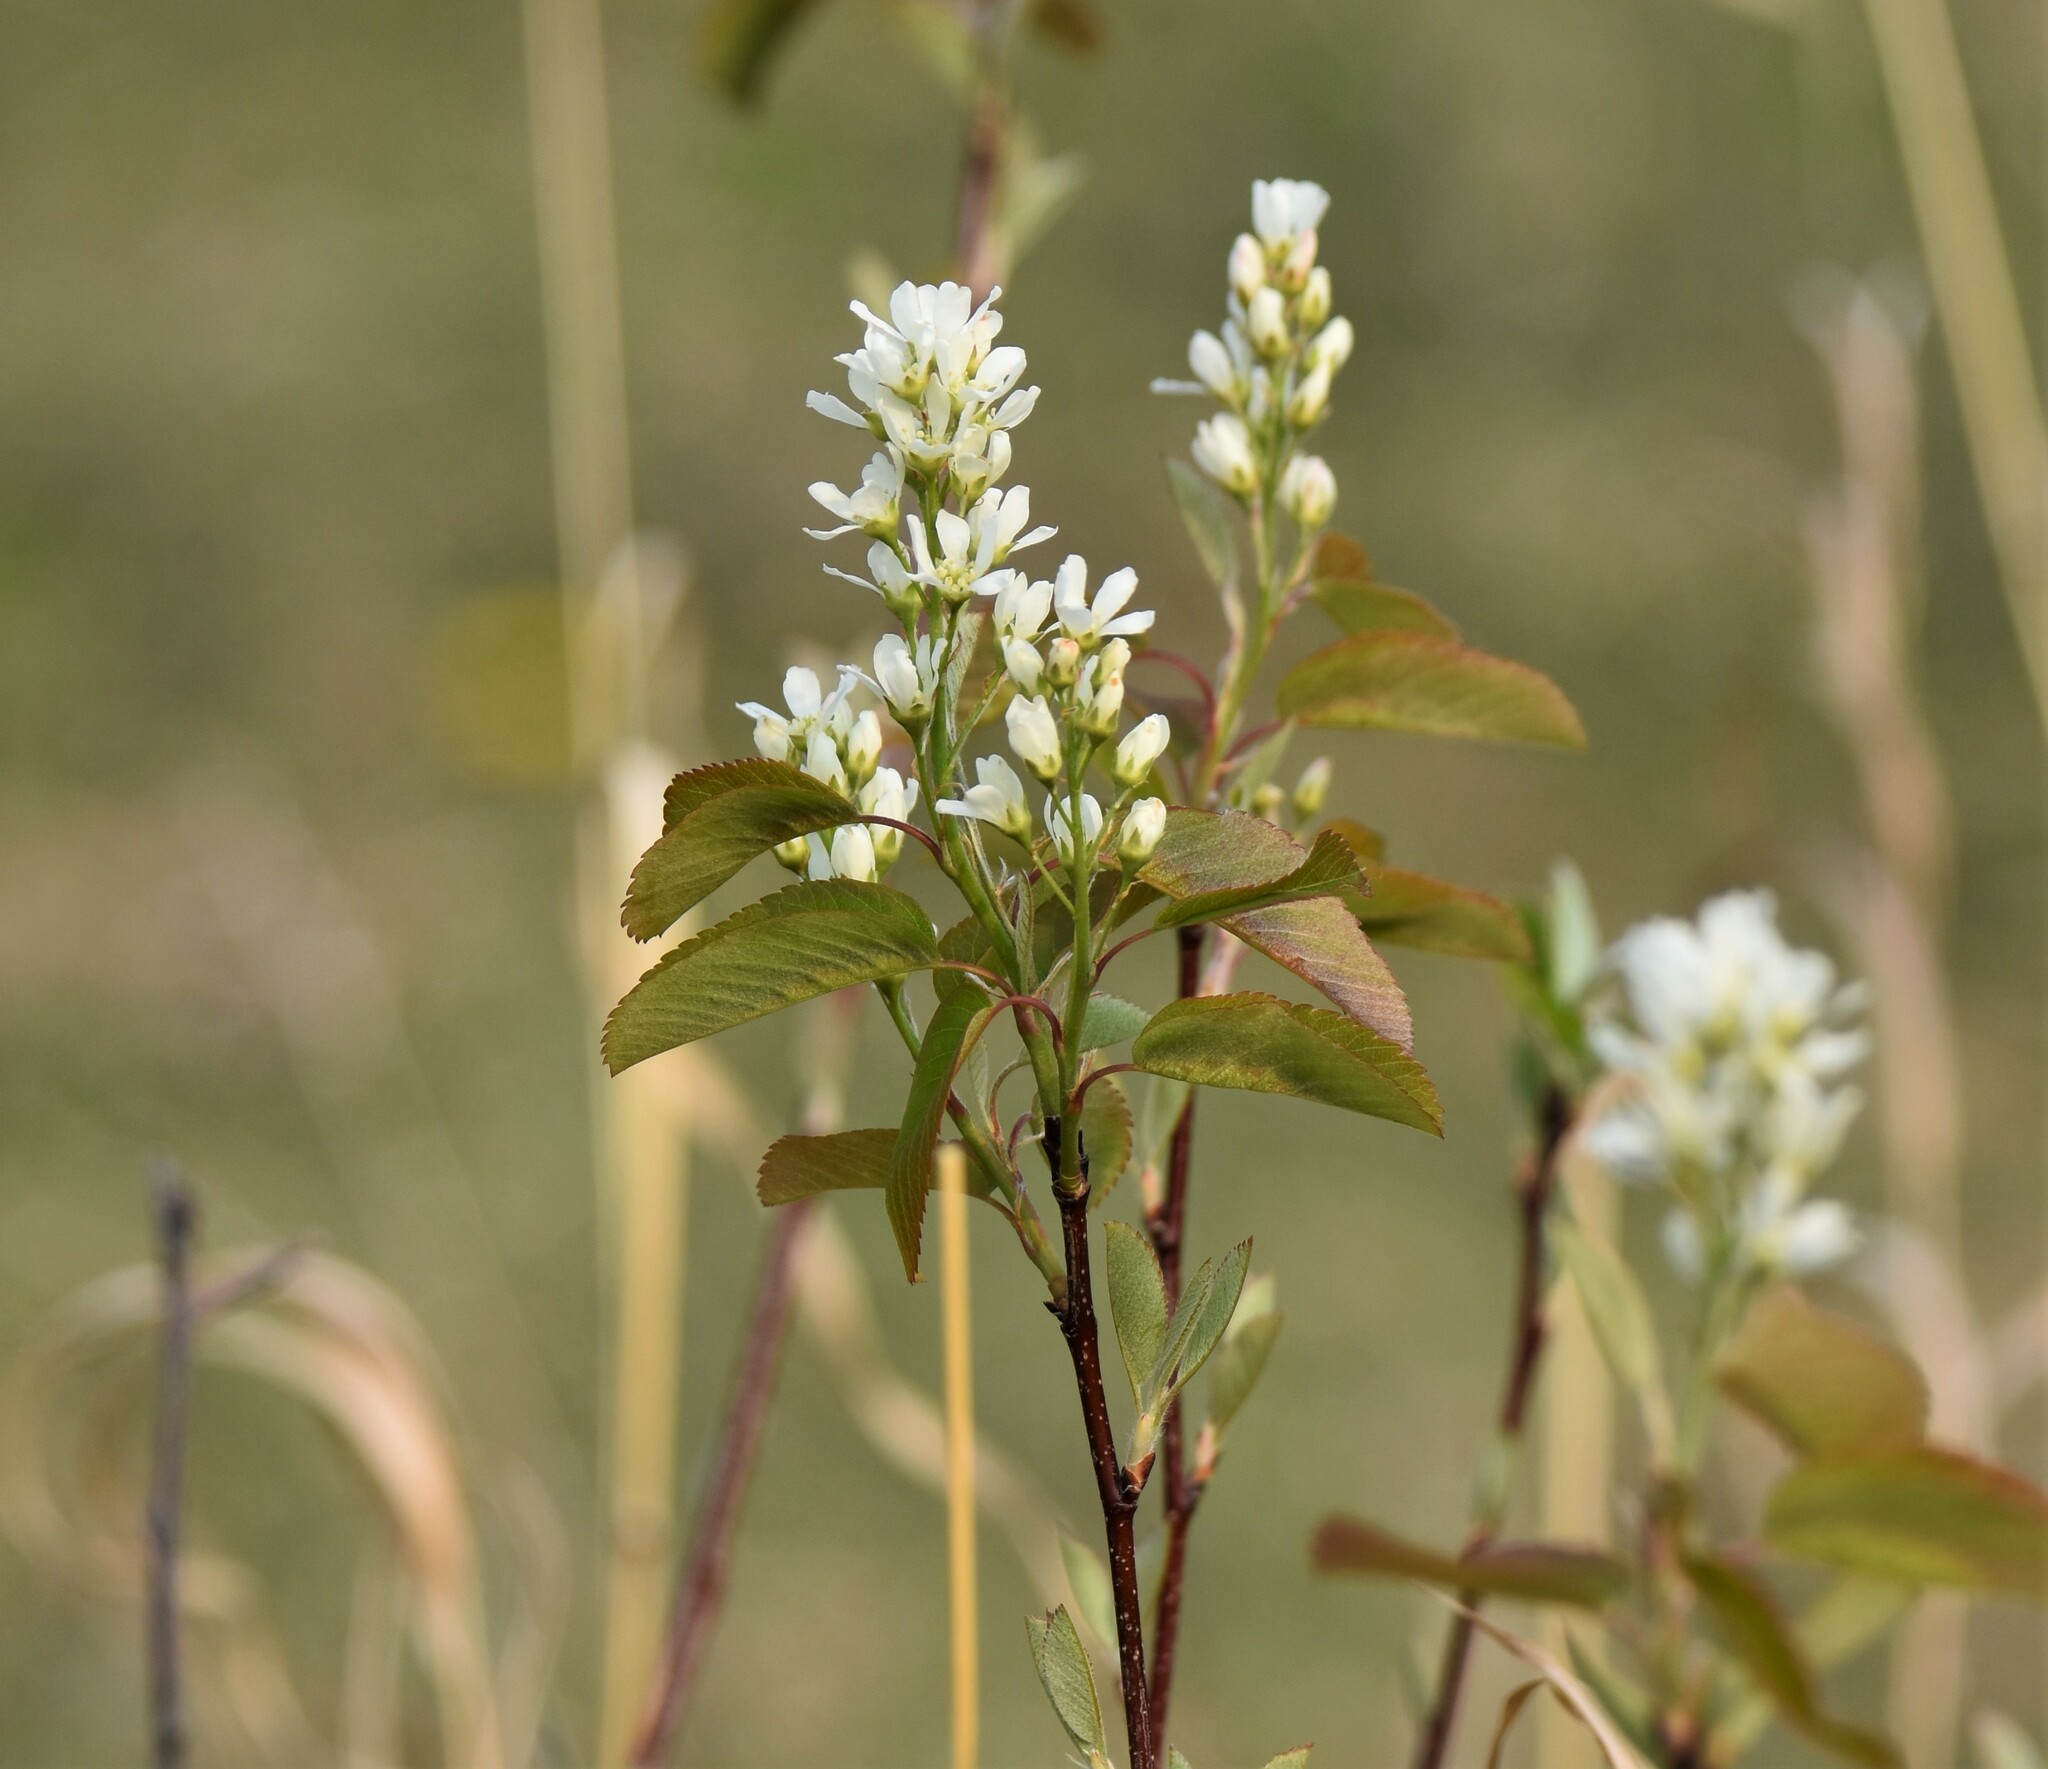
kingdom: Plantae
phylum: Tracheophyta
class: Magnoliopsida
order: Rosales
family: Rosaceae
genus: Amelanchier
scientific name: Amelanchier alnifolia
